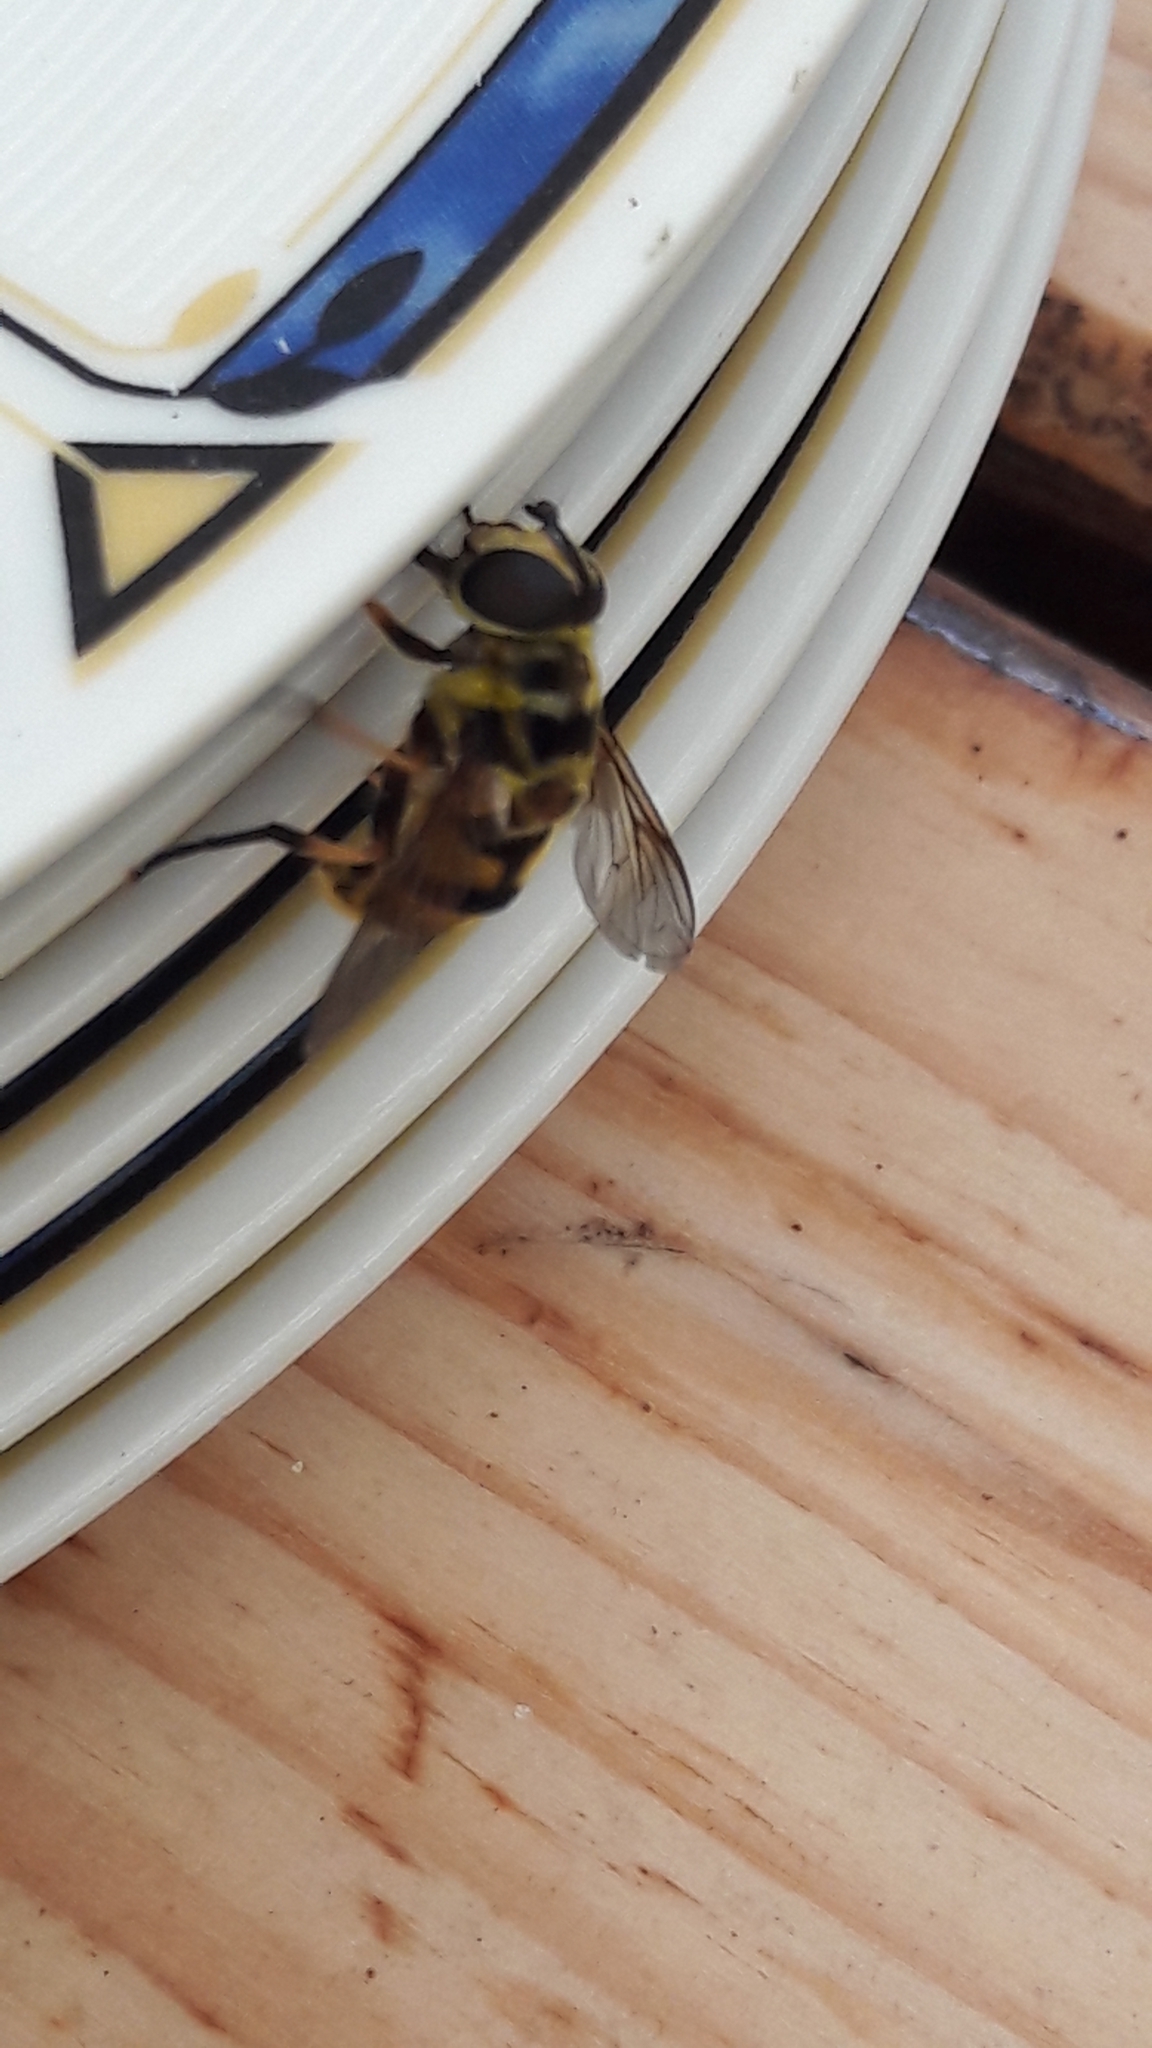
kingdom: Animalia
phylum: Arthropoda
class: Insecta
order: Diptera
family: Syrphidae
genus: Myathropa
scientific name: Myathropa florea
